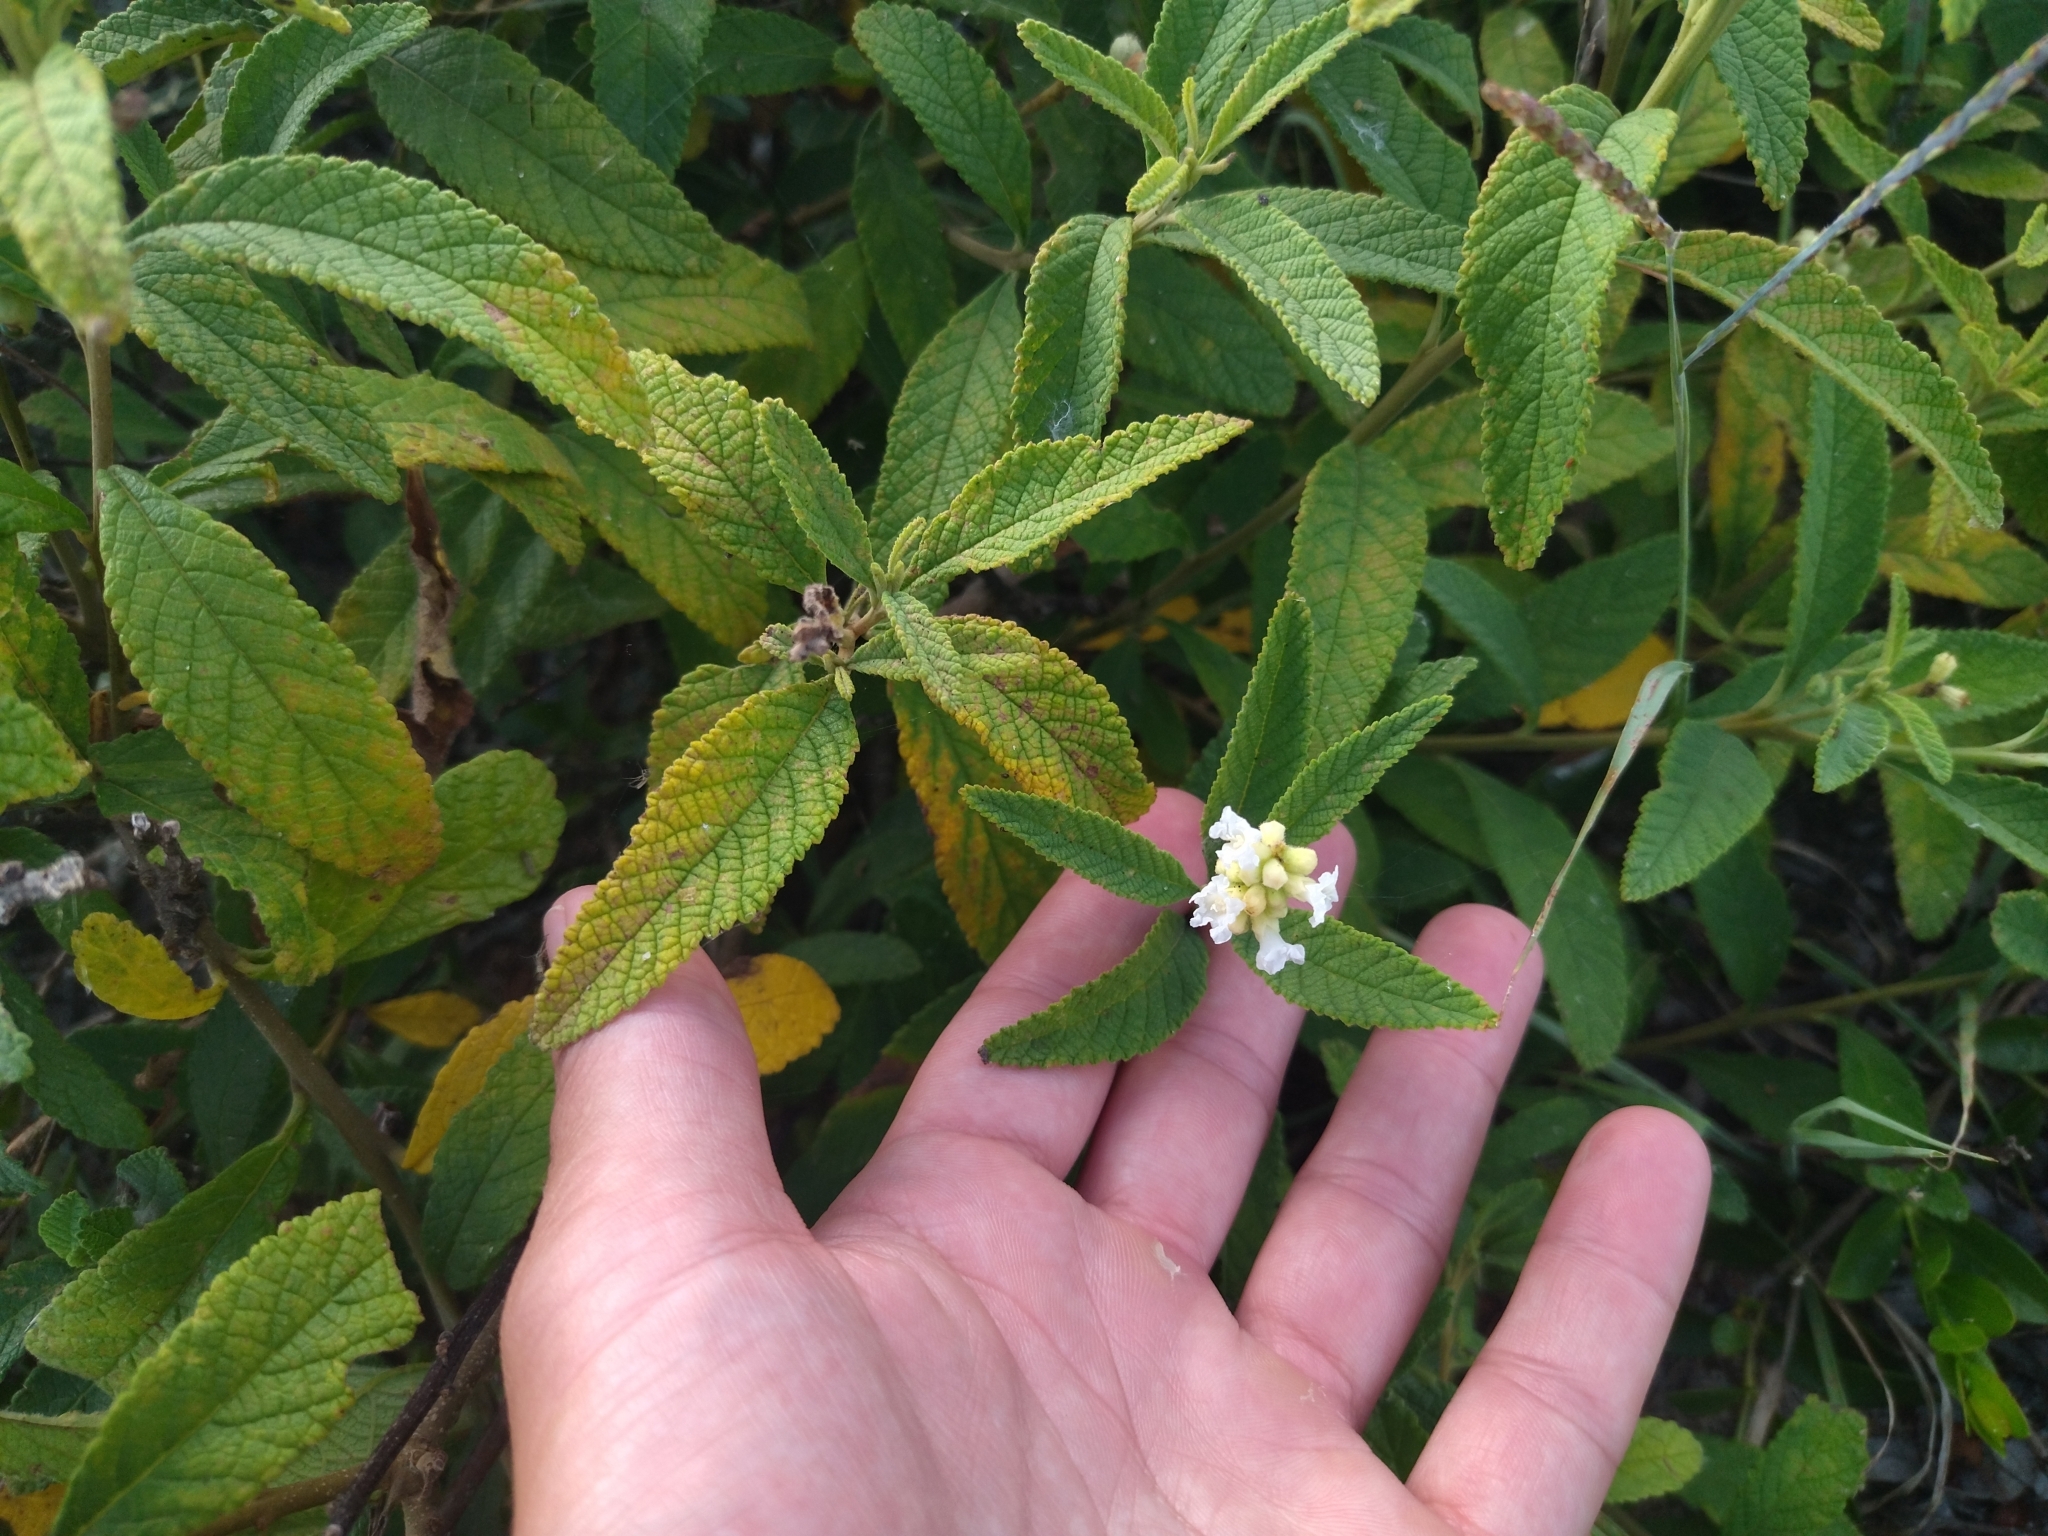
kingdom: Plantae
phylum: Tracheophyta
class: Magnoliopsida
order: Boraginales
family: Cordiaceae
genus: Varronia
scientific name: Varronia curassavica
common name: Black sage
